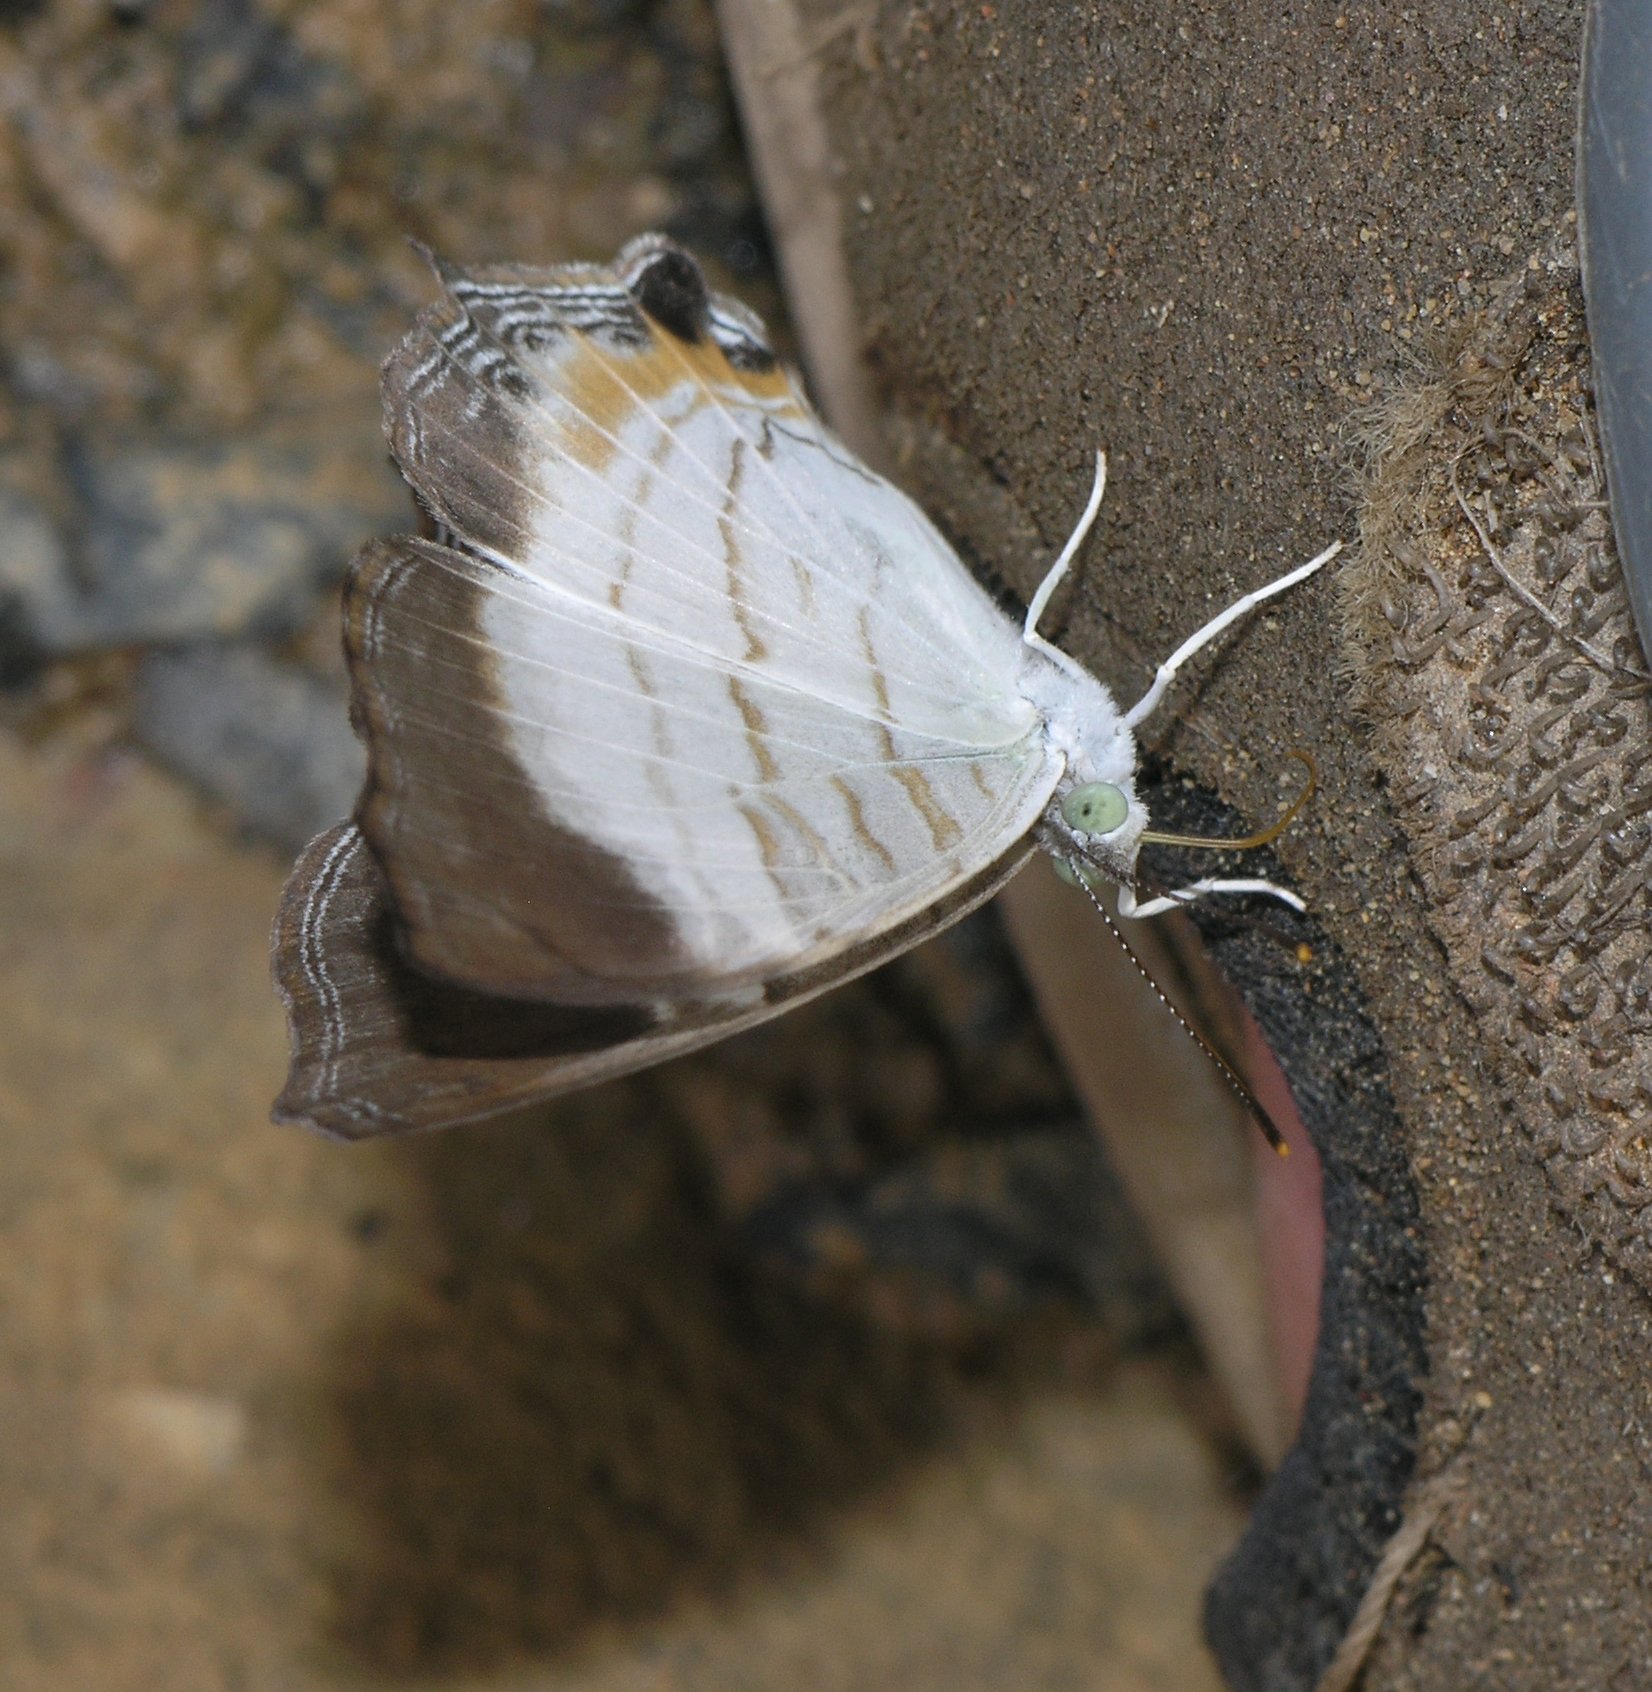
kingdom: Animalia
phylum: Arthropoda
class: Insecta
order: Lepidoptera
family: Nymphalidae
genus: Cyrestis
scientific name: Cyrestis themire
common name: Little mapwing
